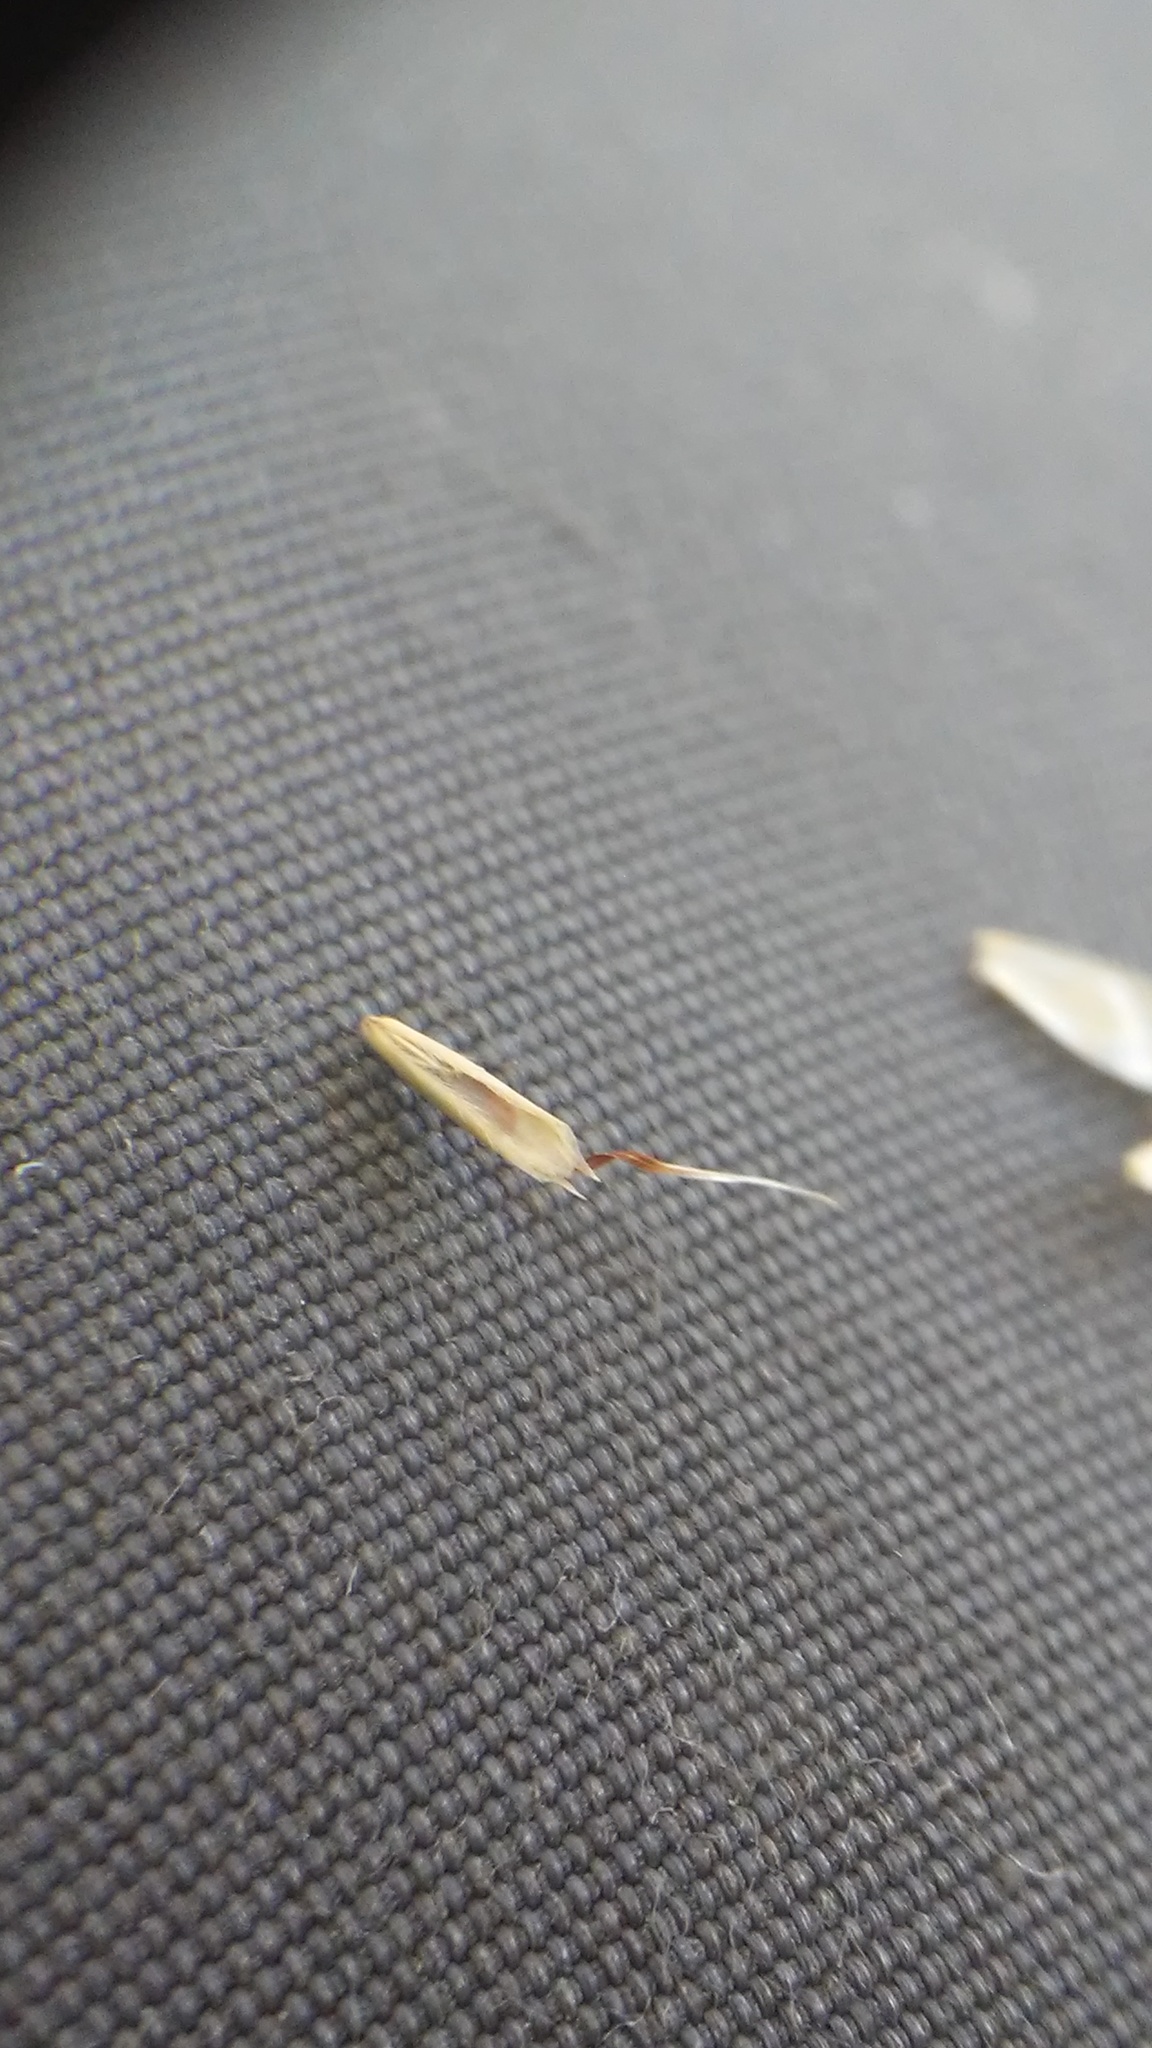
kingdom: Plantae
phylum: Tracheophyta
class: Liliopsida
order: Poales
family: Poaceae
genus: Danthonia
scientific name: Danthonia spicata
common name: Common wild oatgrass
